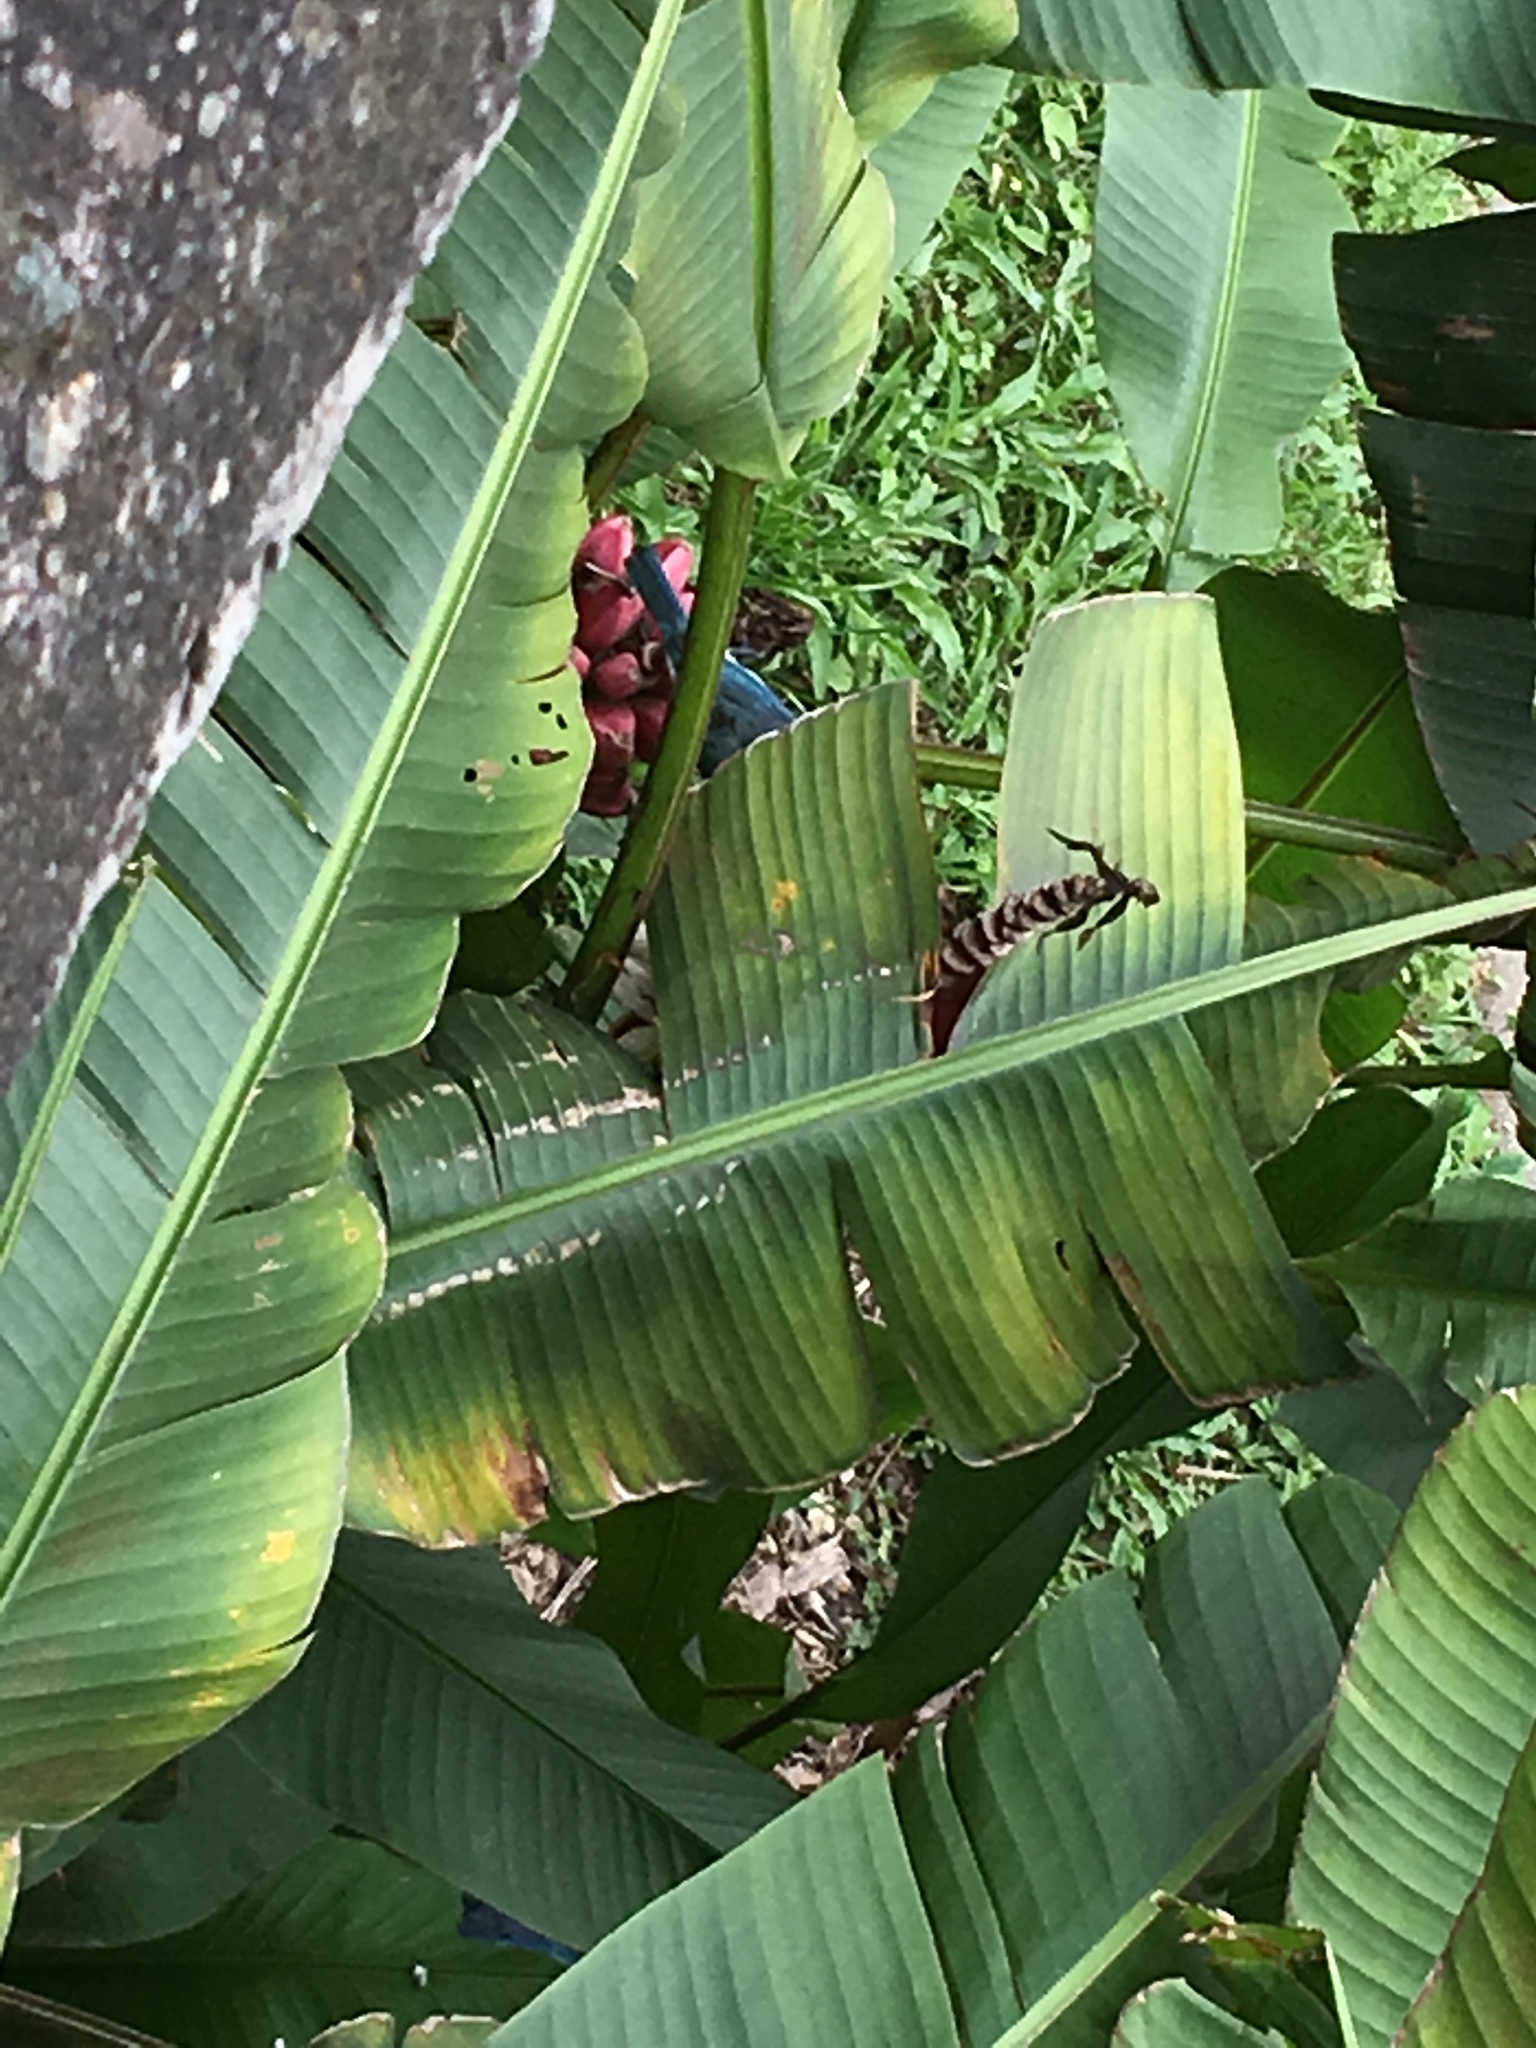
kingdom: Animalia
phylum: Chordata
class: Aves
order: Passeriformes
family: Thraupidae
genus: Thraupis
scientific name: Thraupis episcopus
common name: Blue-grey tanager
